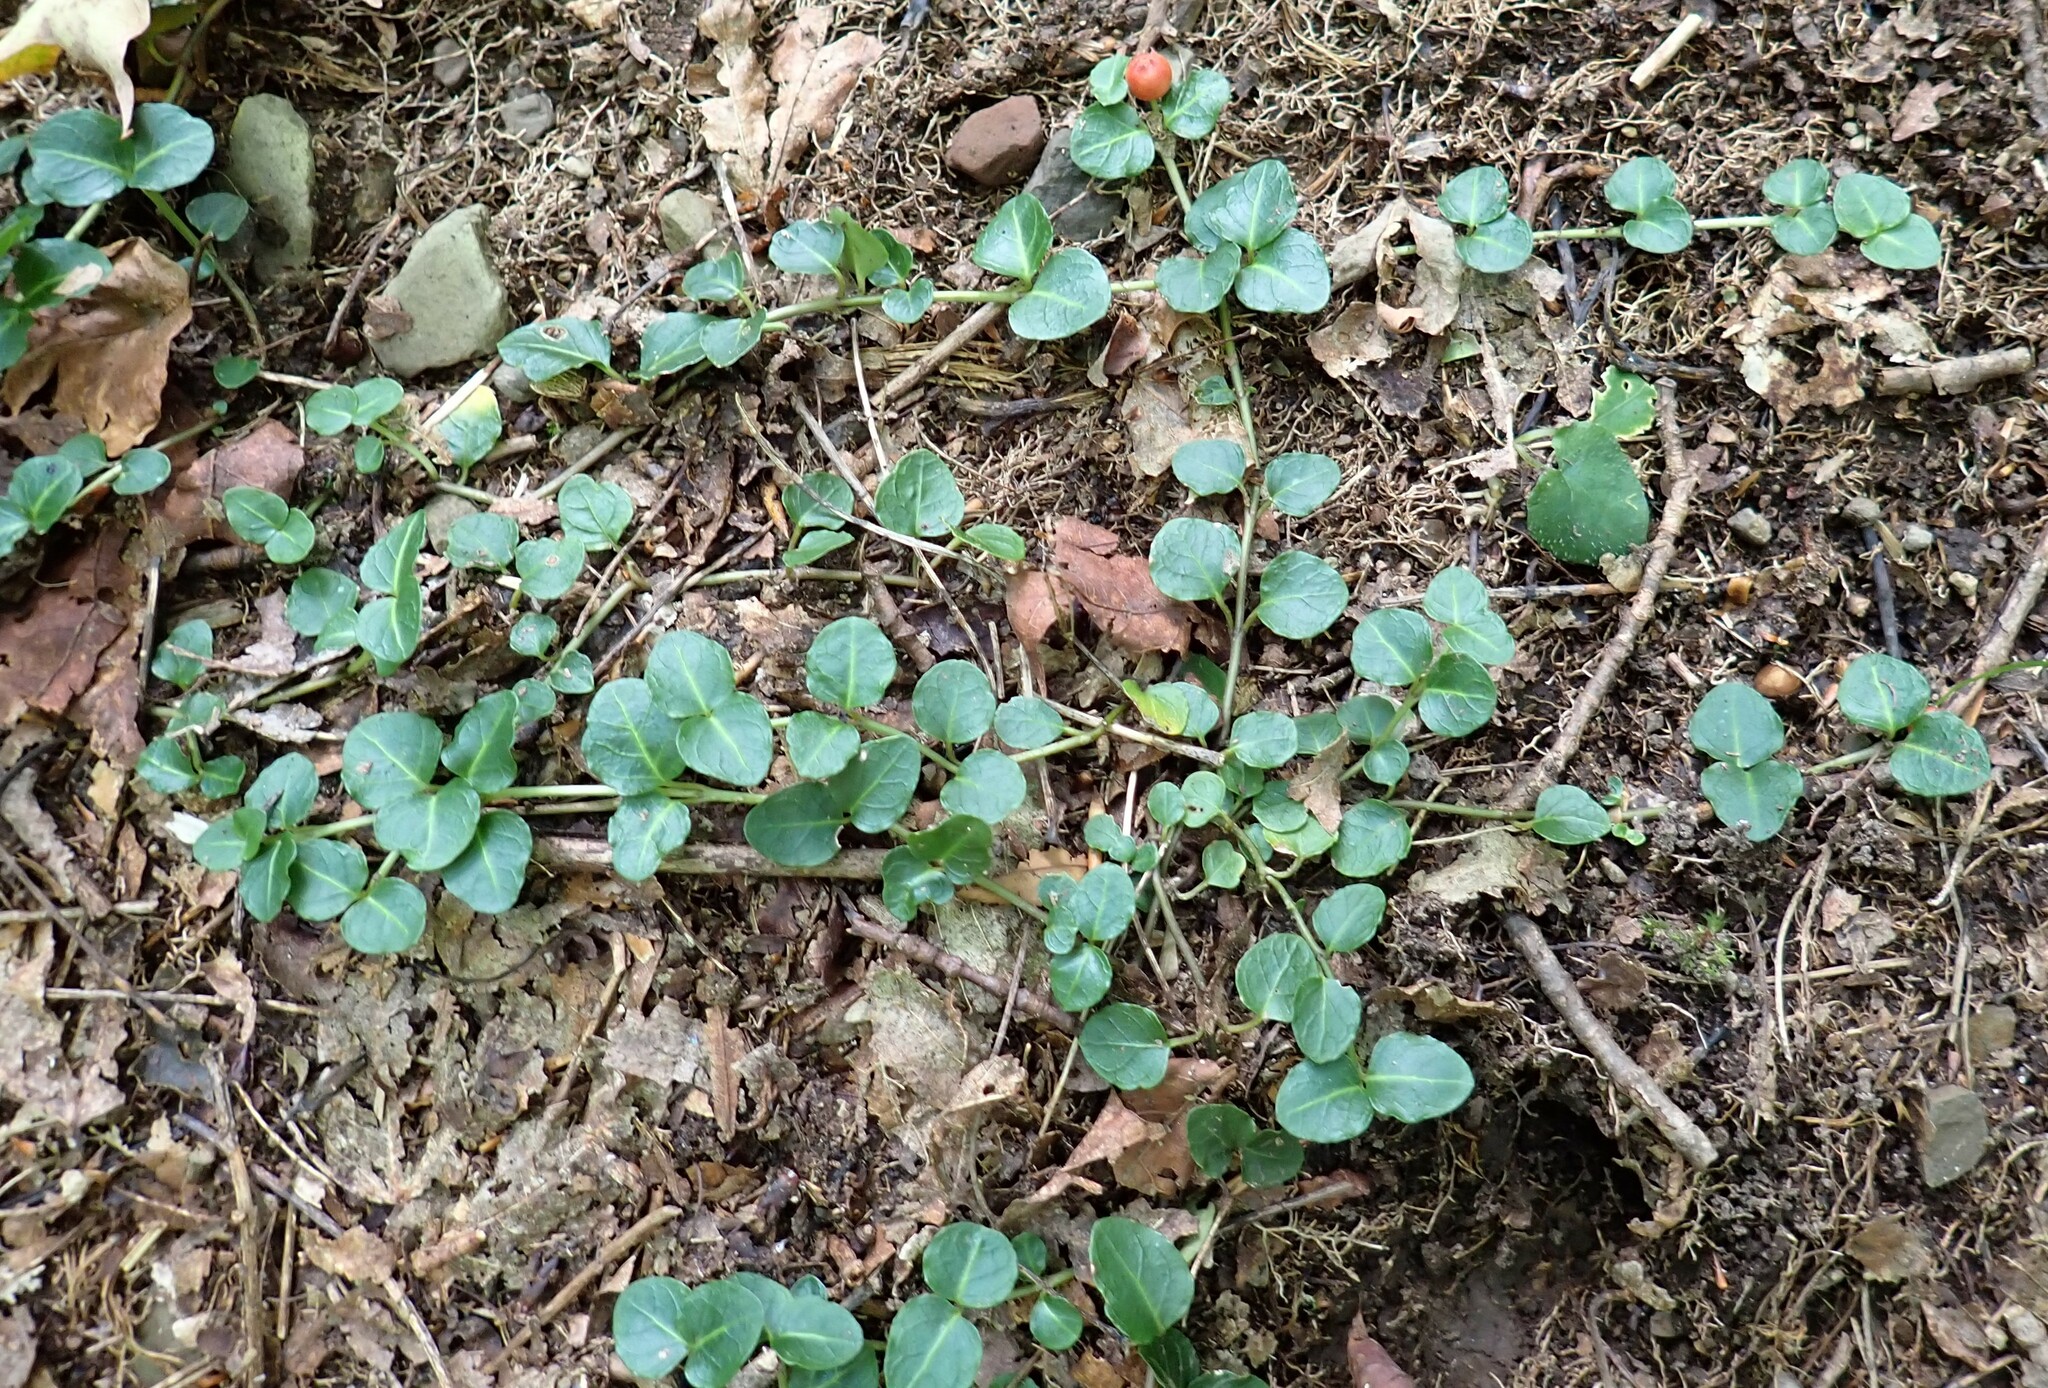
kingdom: Plantae
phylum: Tracheophyta
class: Magnoliopsida
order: Gentianales
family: Rubiaceae
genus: Mitchella
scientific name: Mitchella repens
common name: Partridge-berry
